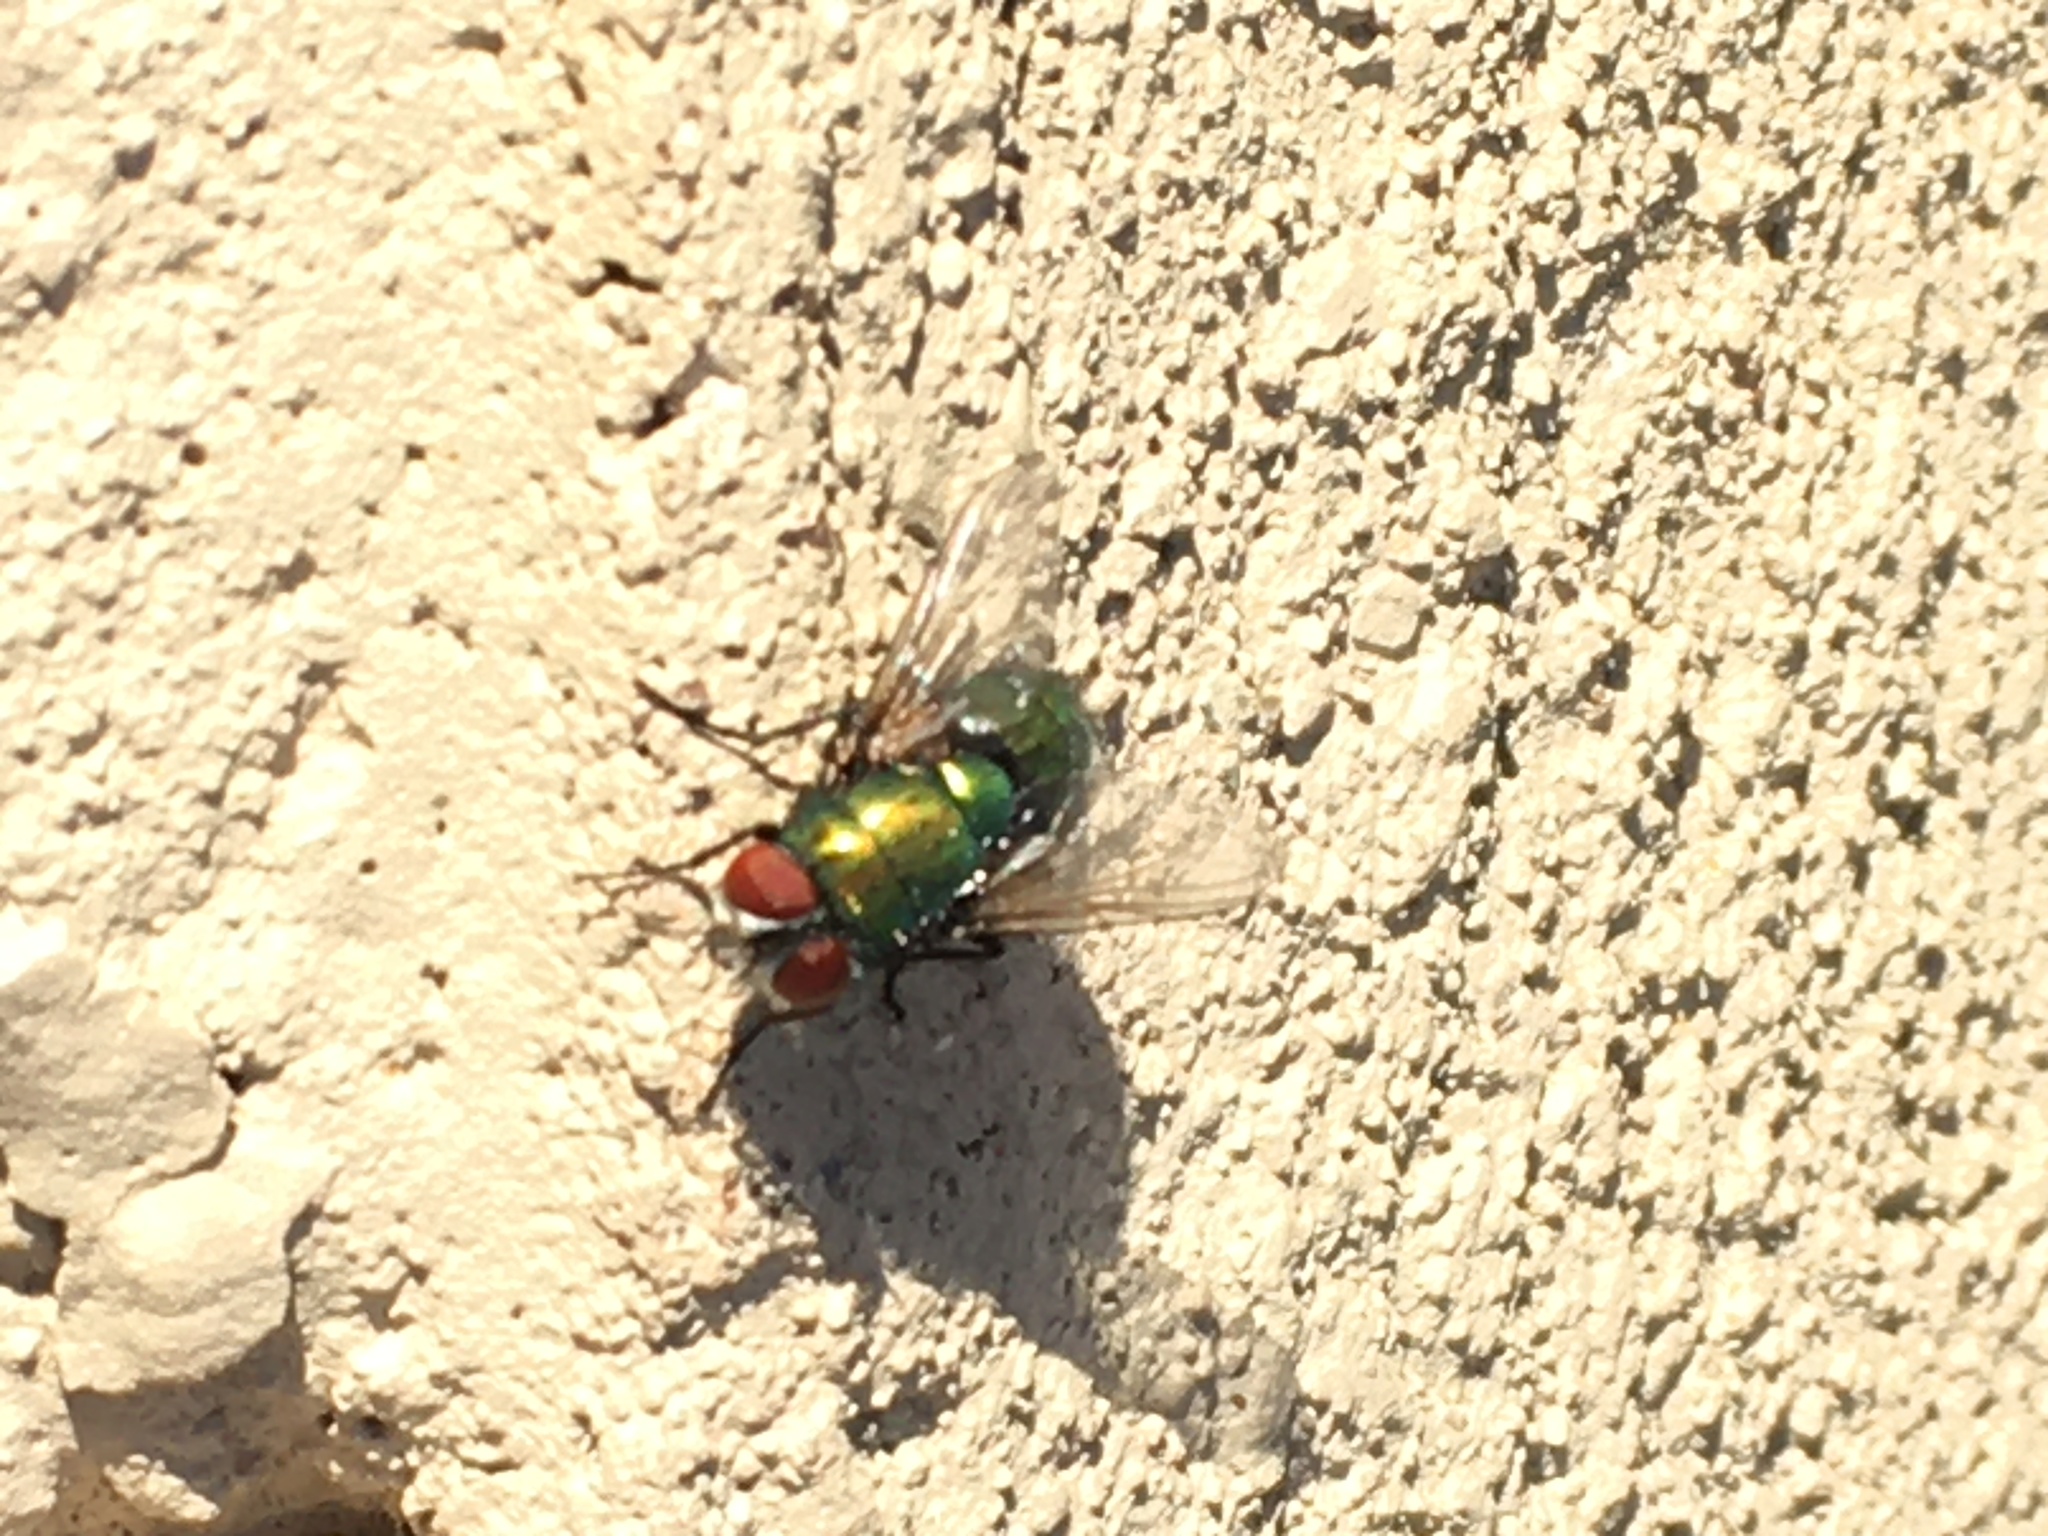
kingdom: Animalia
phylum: Arthropoda
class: Insecta
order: Diptera
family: Calliphoridae
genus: Lucilia
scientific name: Lucilia sericata
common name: Blow fly
